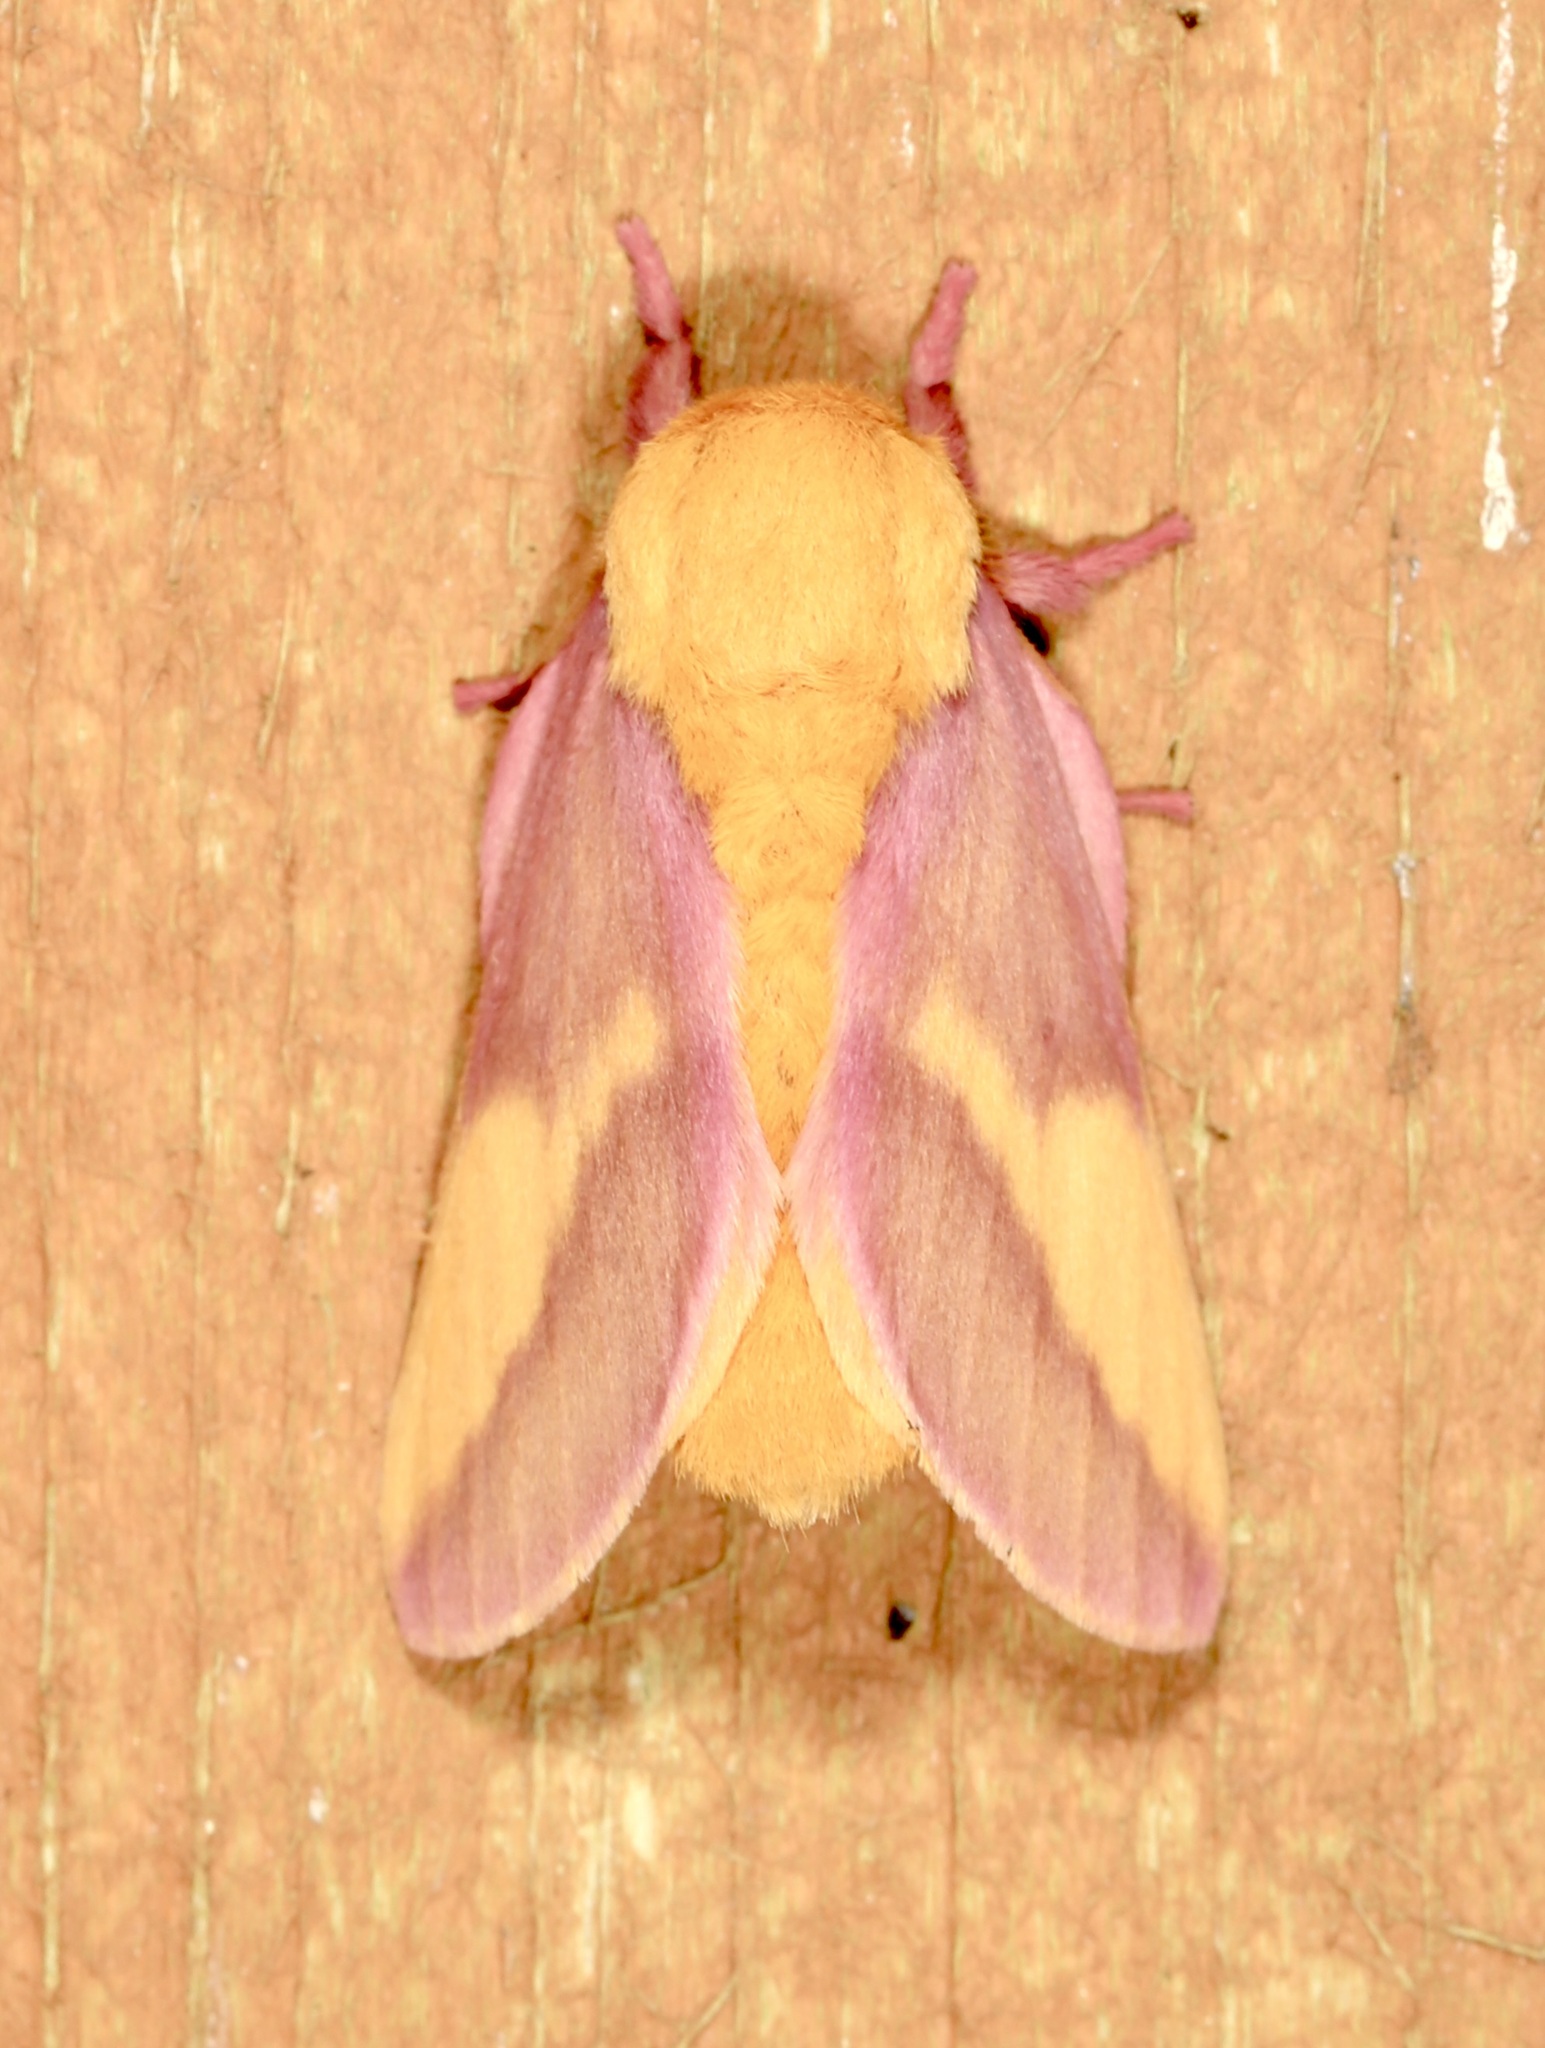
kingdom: Animalia
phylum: Arthropoda
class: Insecta
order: Lepidoptera
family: Saturniidae
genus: Dryocampa
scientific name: Dryocampa rubicunda
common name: Rosy maple moth
